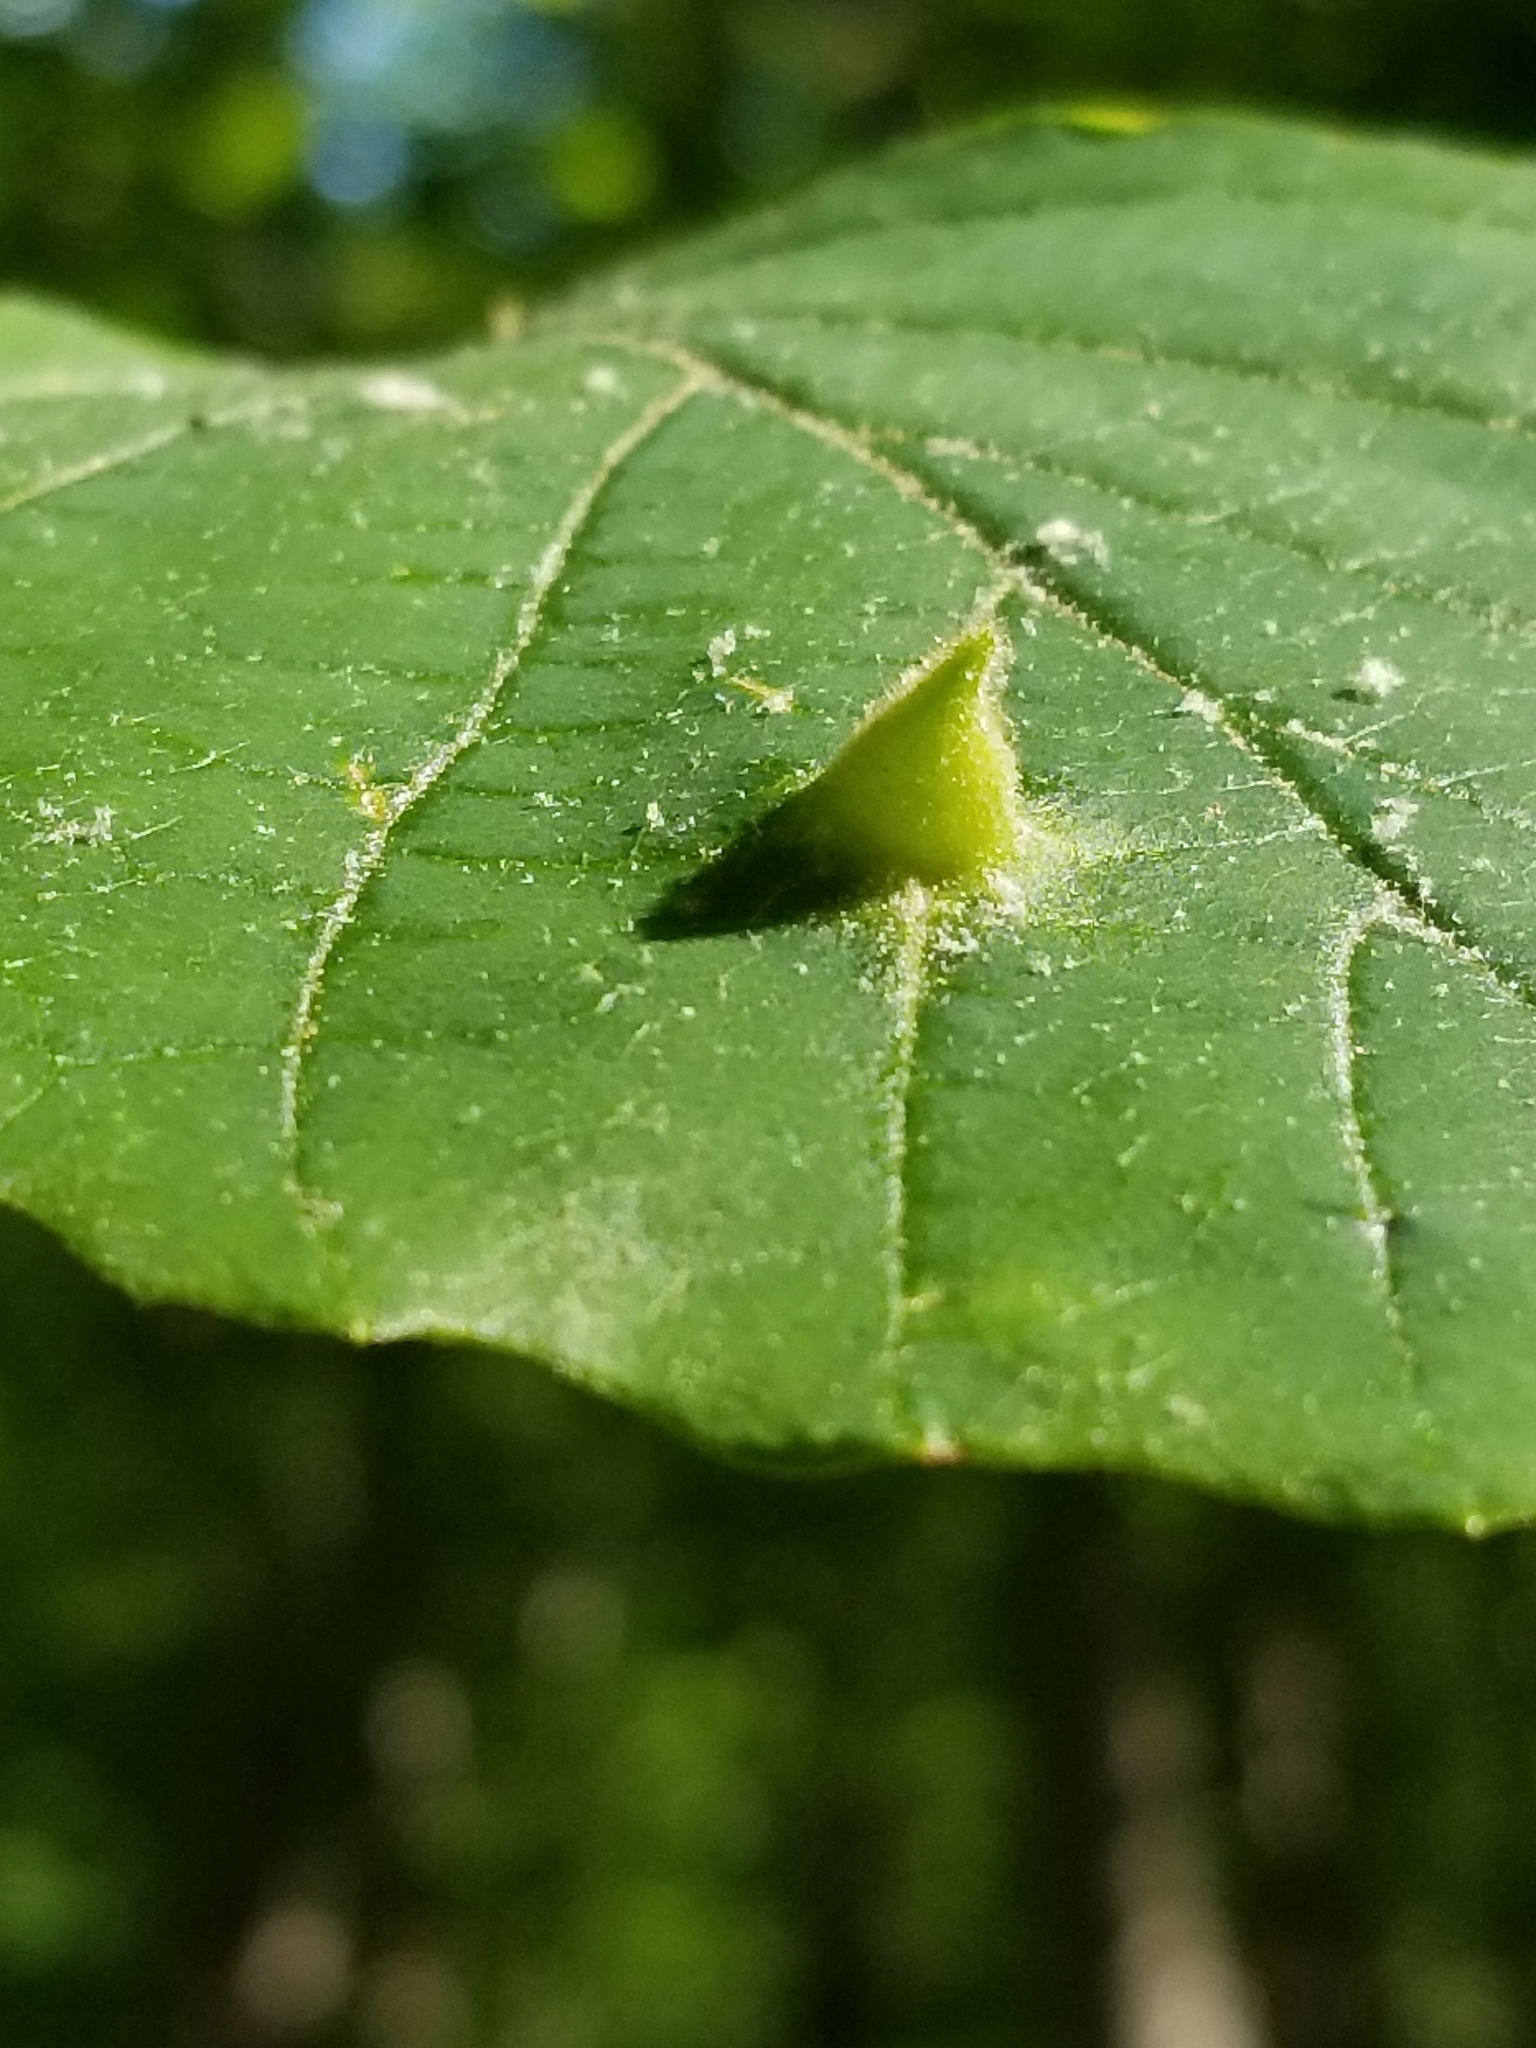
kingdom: Animalia
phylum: Arthropoda
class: Insecta
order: Hemiptera
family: Aphididae
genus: Hormaphis
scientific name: Hormaphis hamamelidis
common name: Witch-hazel cone gall aphid
